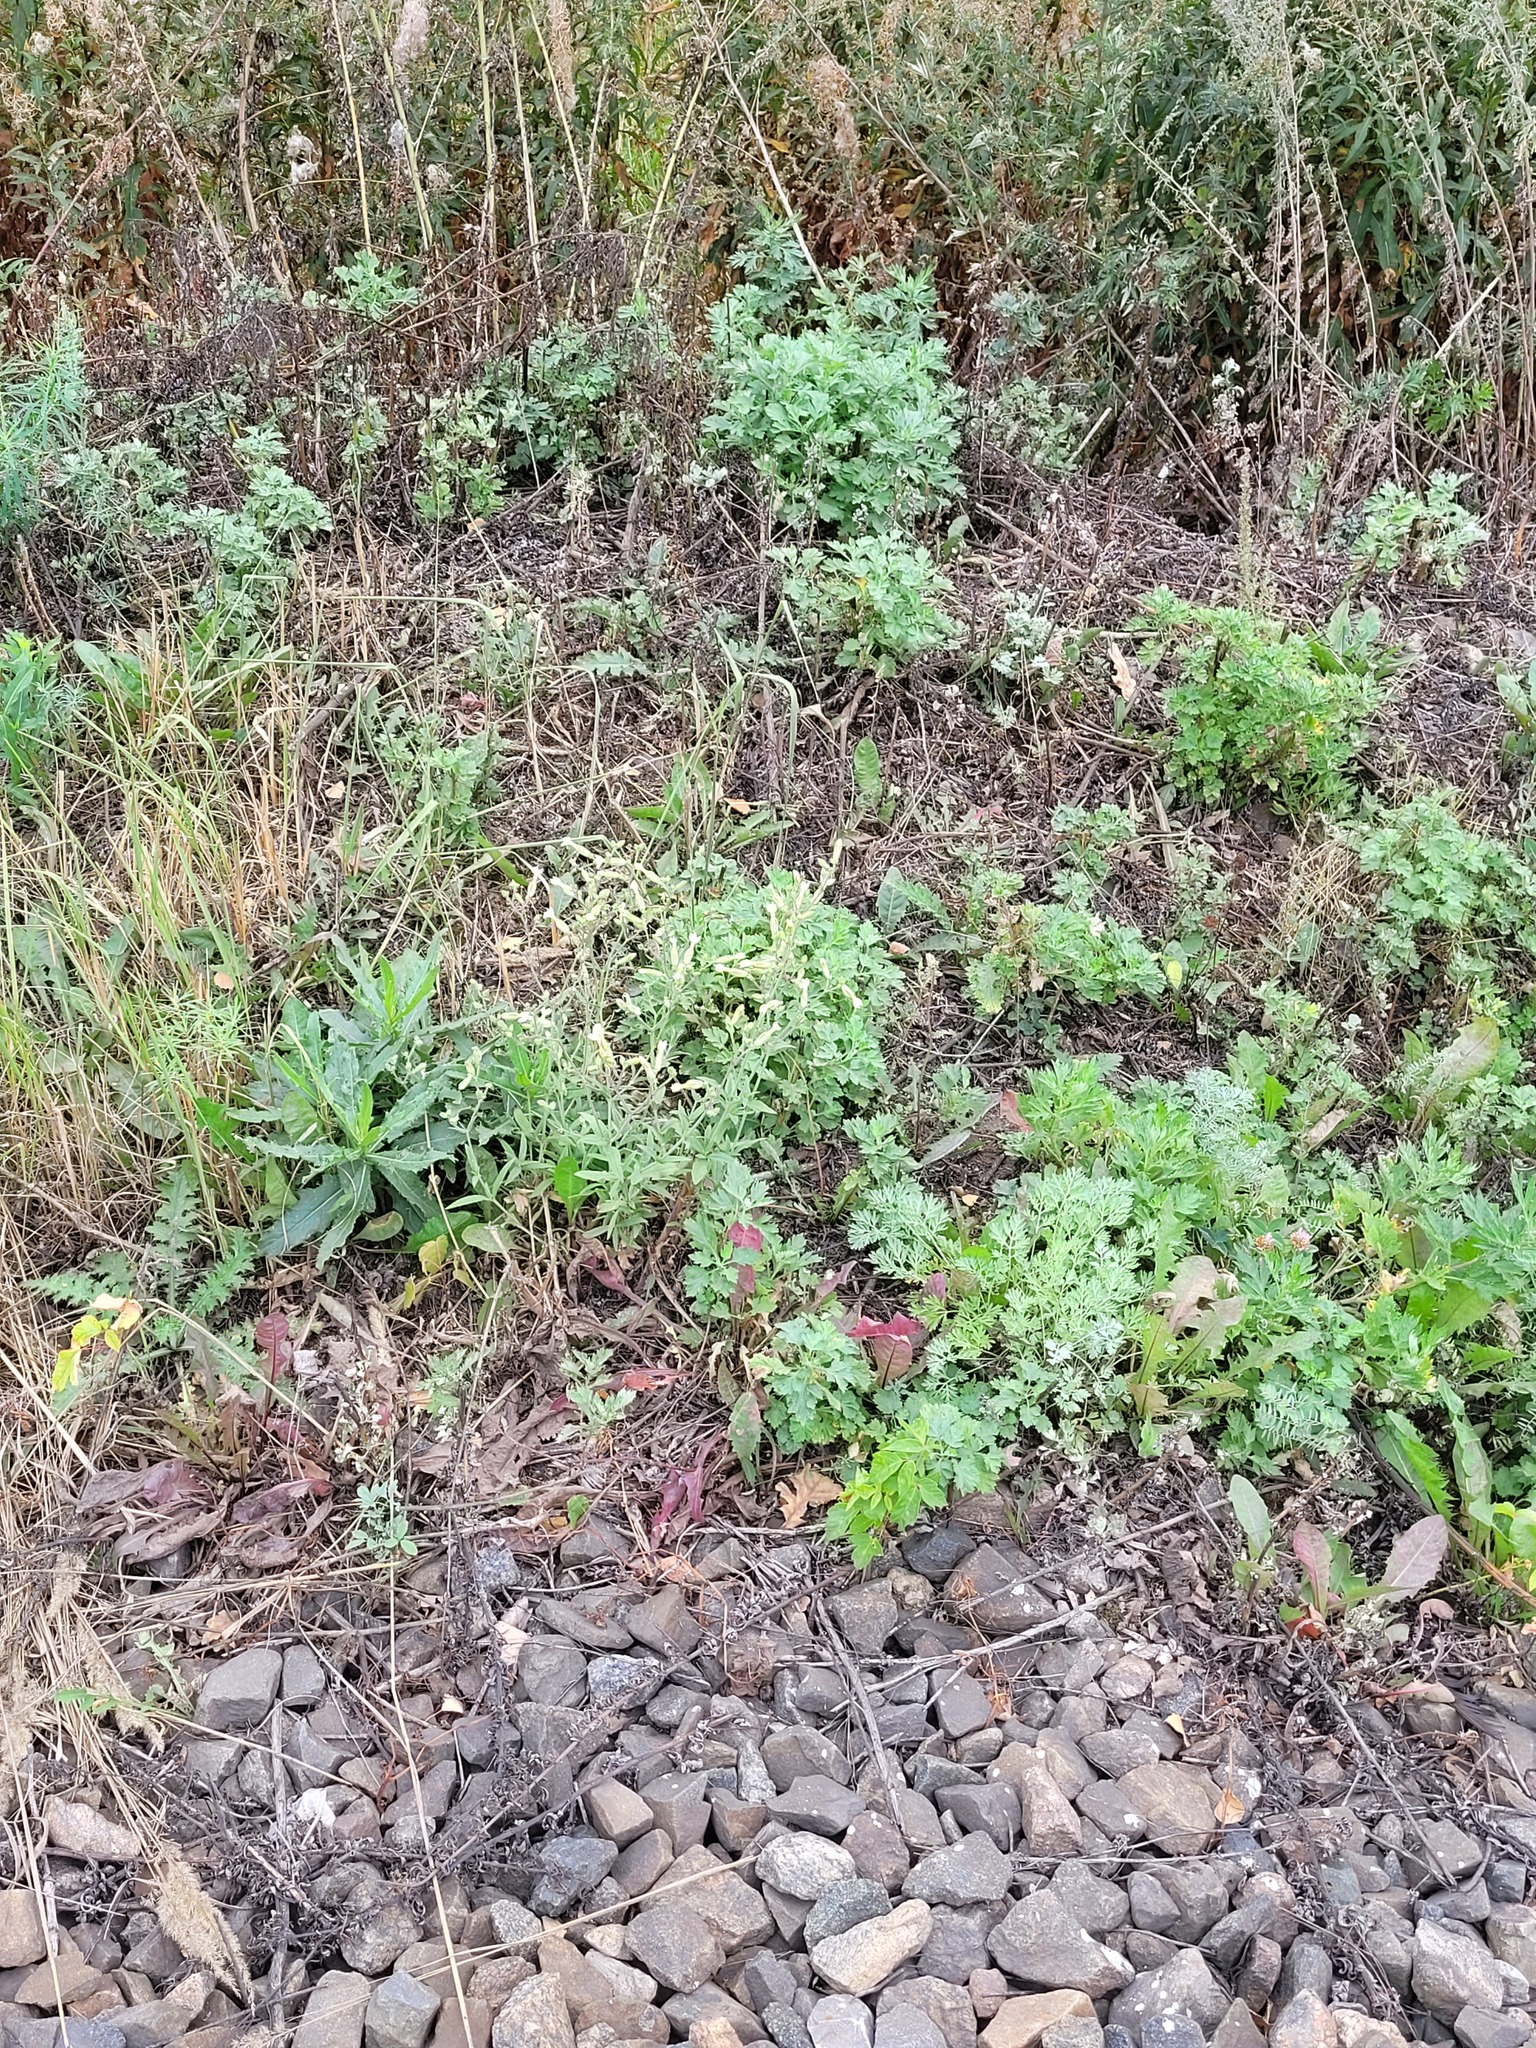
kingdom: Plantae
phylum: Tracheophyta
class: Magnoliopsida
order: Caryophyllales
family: Caryophyllaceae
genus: Silene
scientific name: Silene latifolia
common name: White campion
